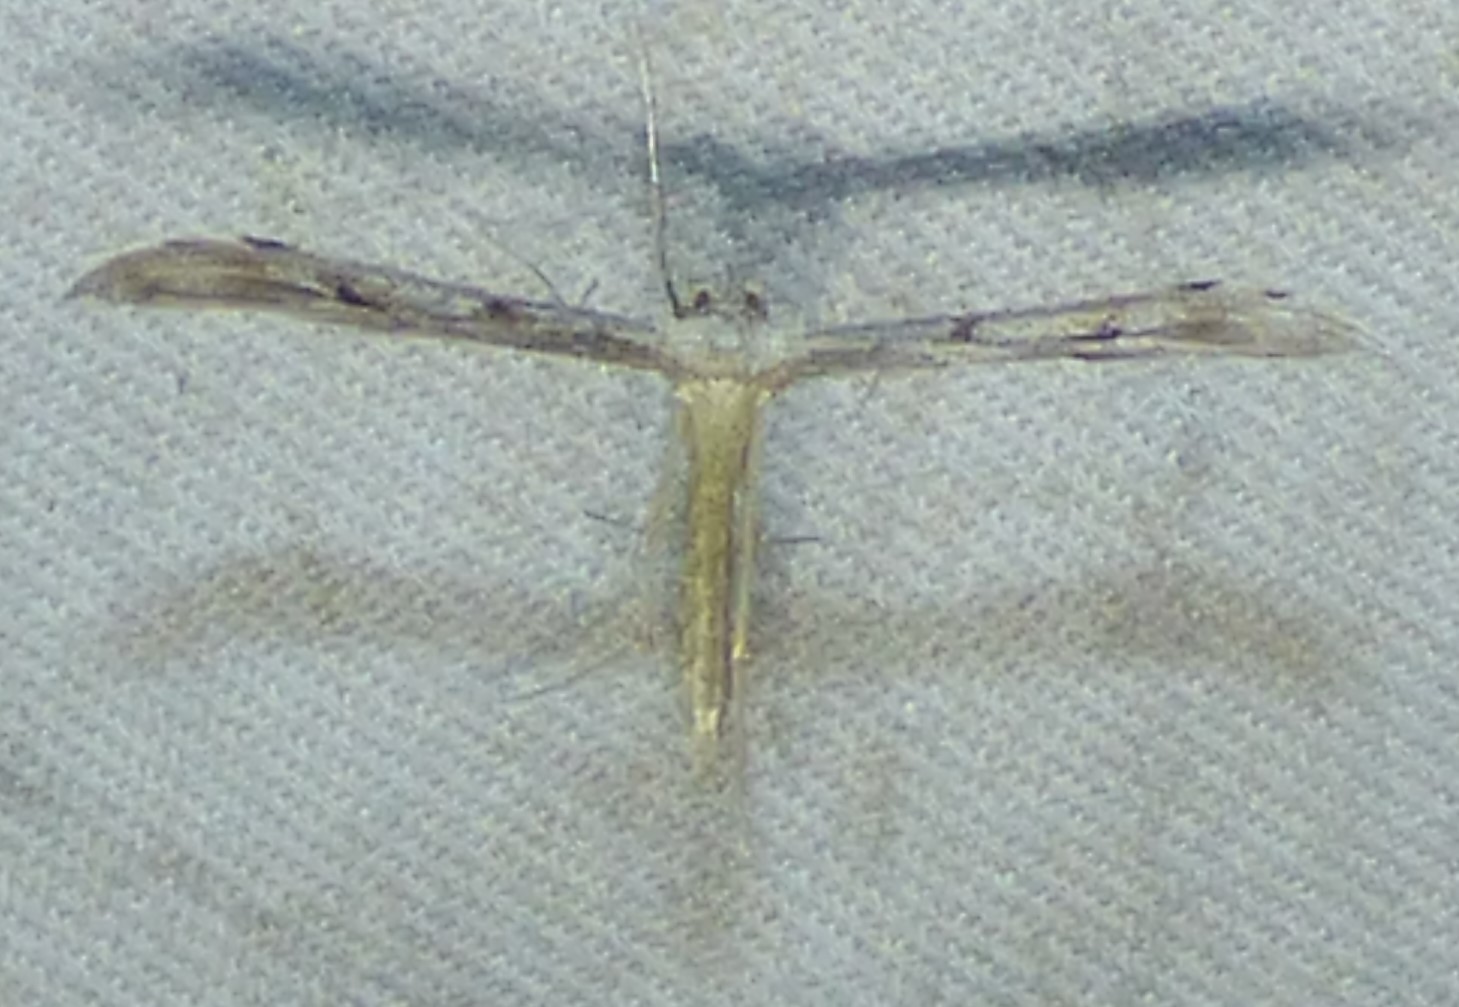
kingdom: Animalia
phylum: Arthropoda
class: Insecta
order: Lepidoptera
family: Pterophoridae
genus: Pselnophorus
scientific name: Pselnophorus belfragei
